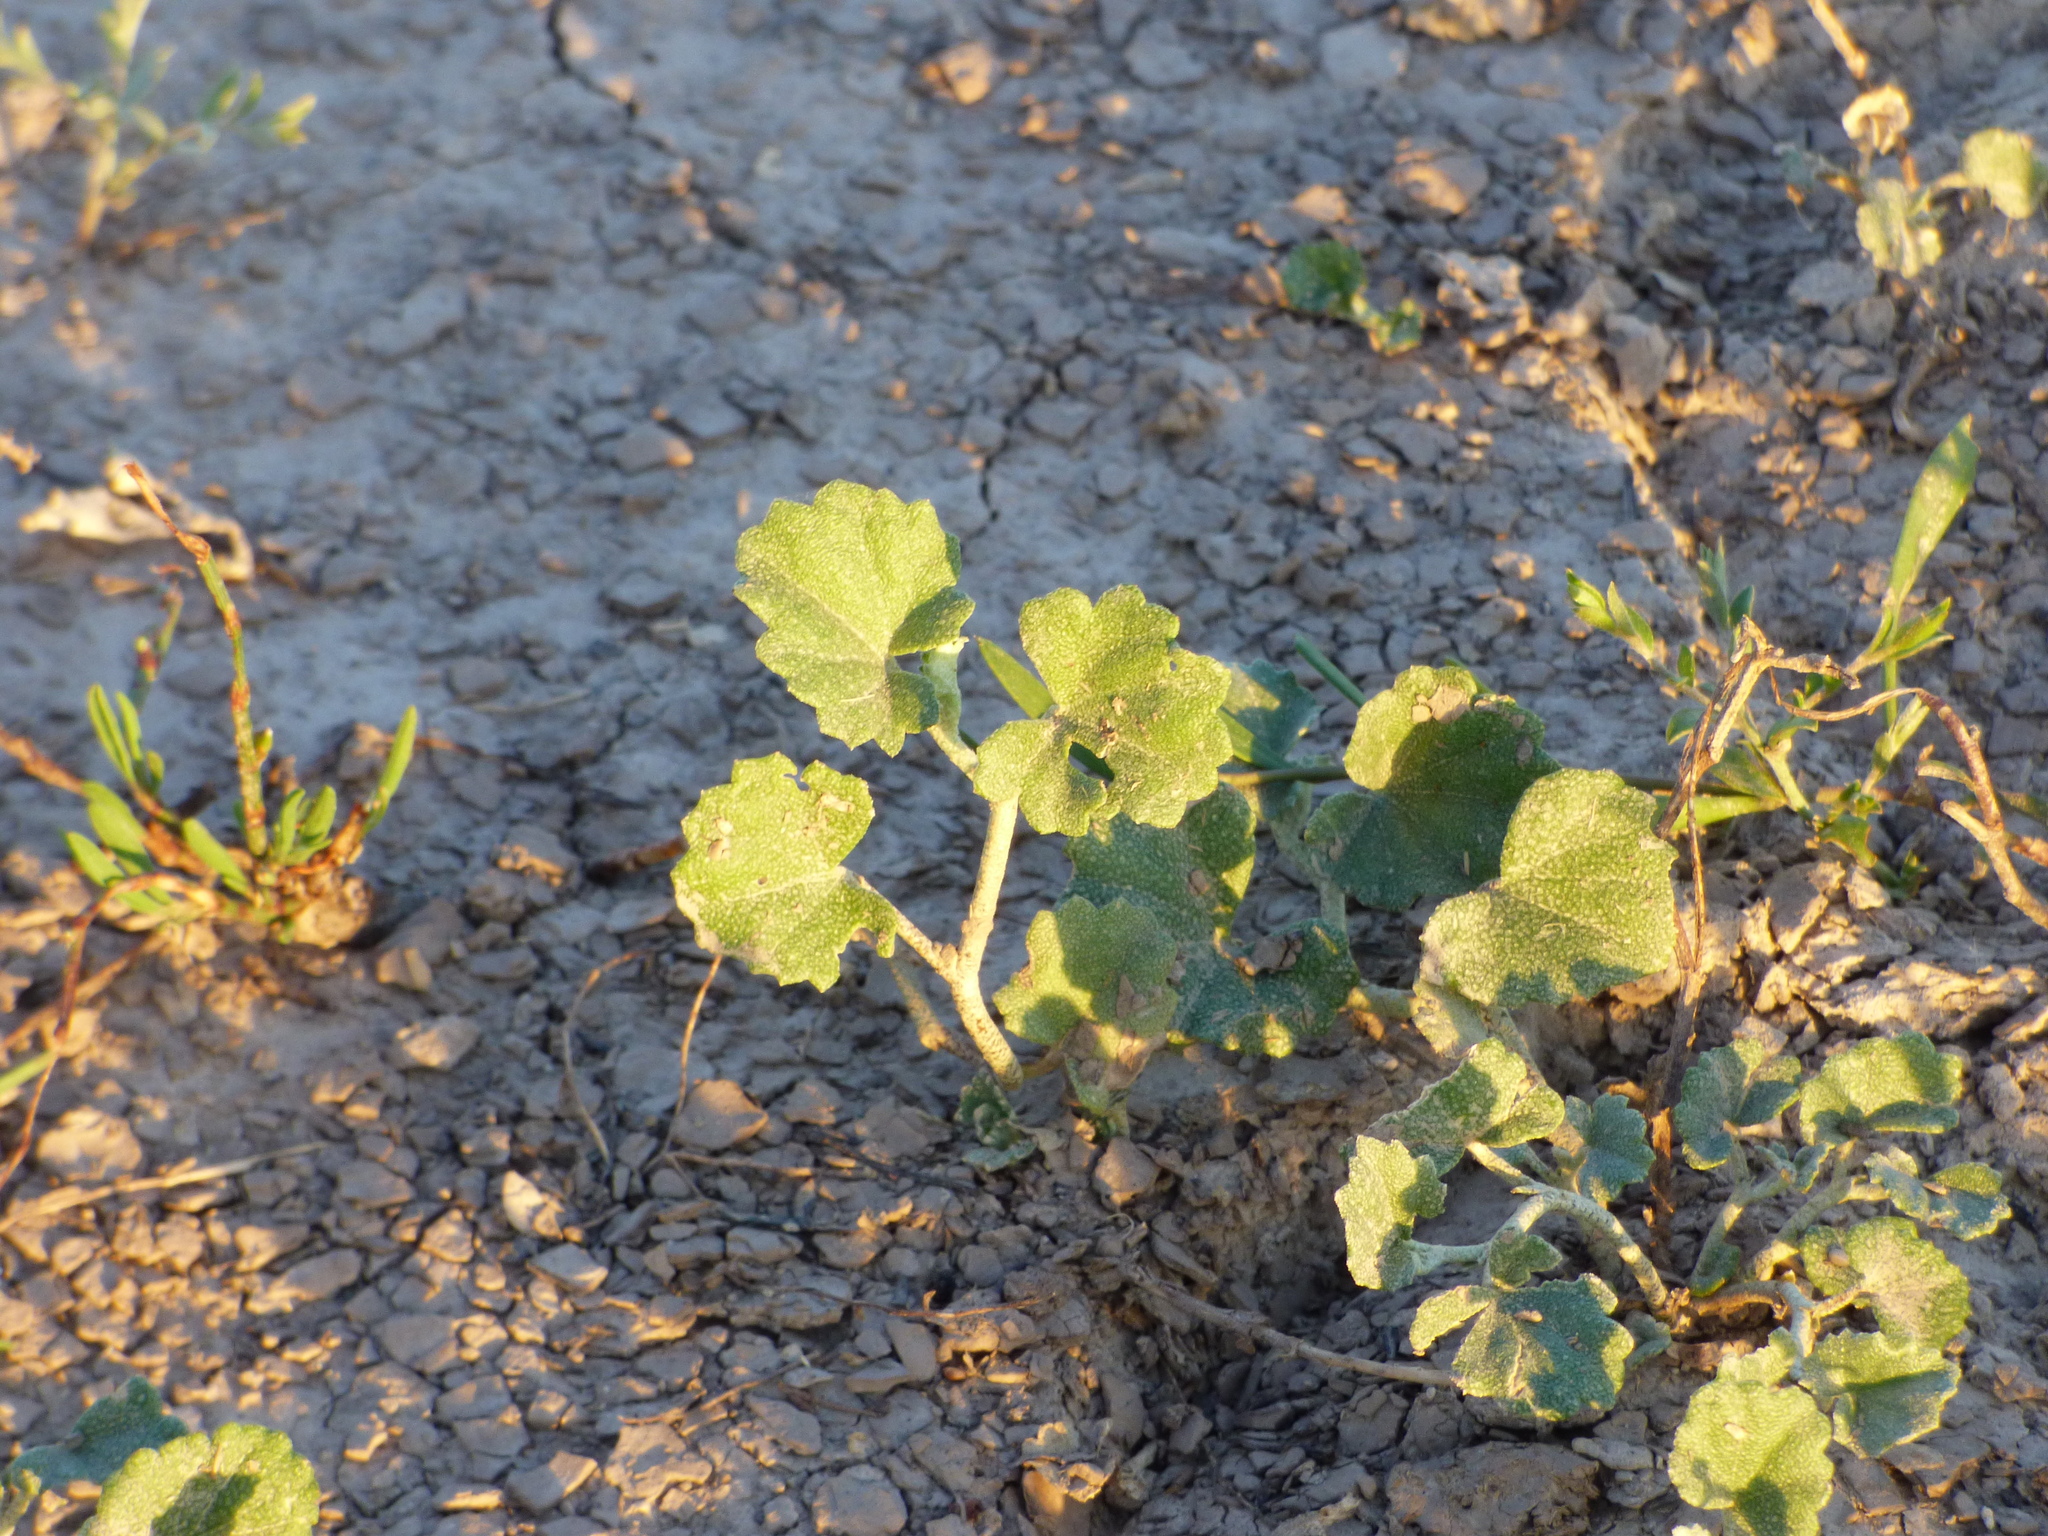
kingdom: Plantae
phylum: Tracheophyta
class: Magnoliopsida
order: Malvales
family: Malvaceae
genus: Malvella
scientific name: Malvella leprosa
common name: Alkali-mallow
